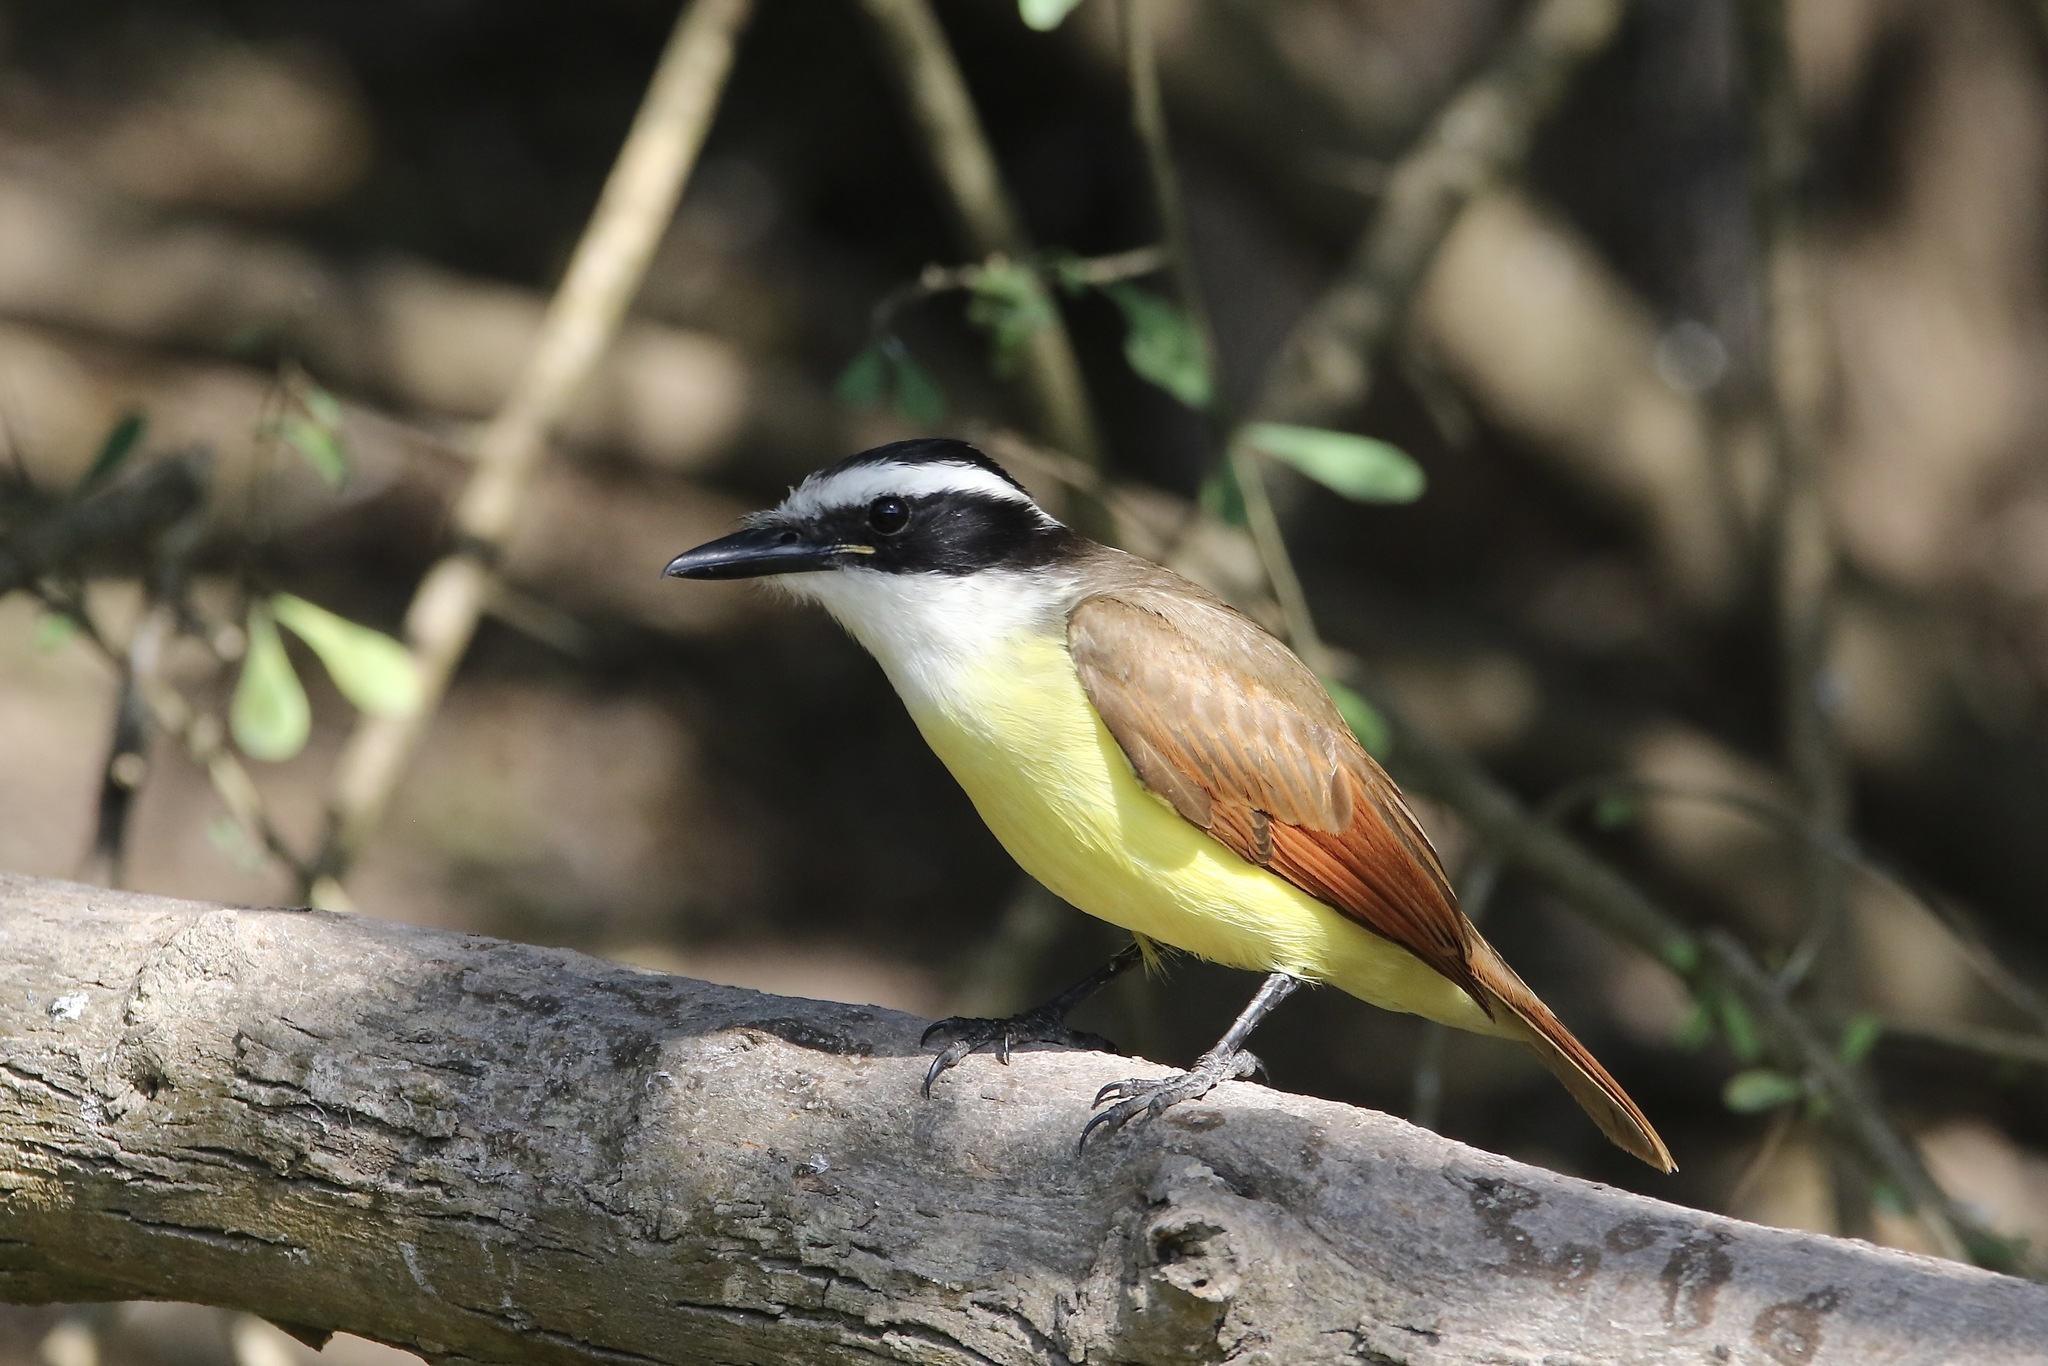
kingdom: Animalia
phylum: Chordata
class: Aves
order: Passeriformes
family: Tyrannidae
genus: Pitangus
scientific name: Pitangus sulphuratus
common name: Great kiskadee
